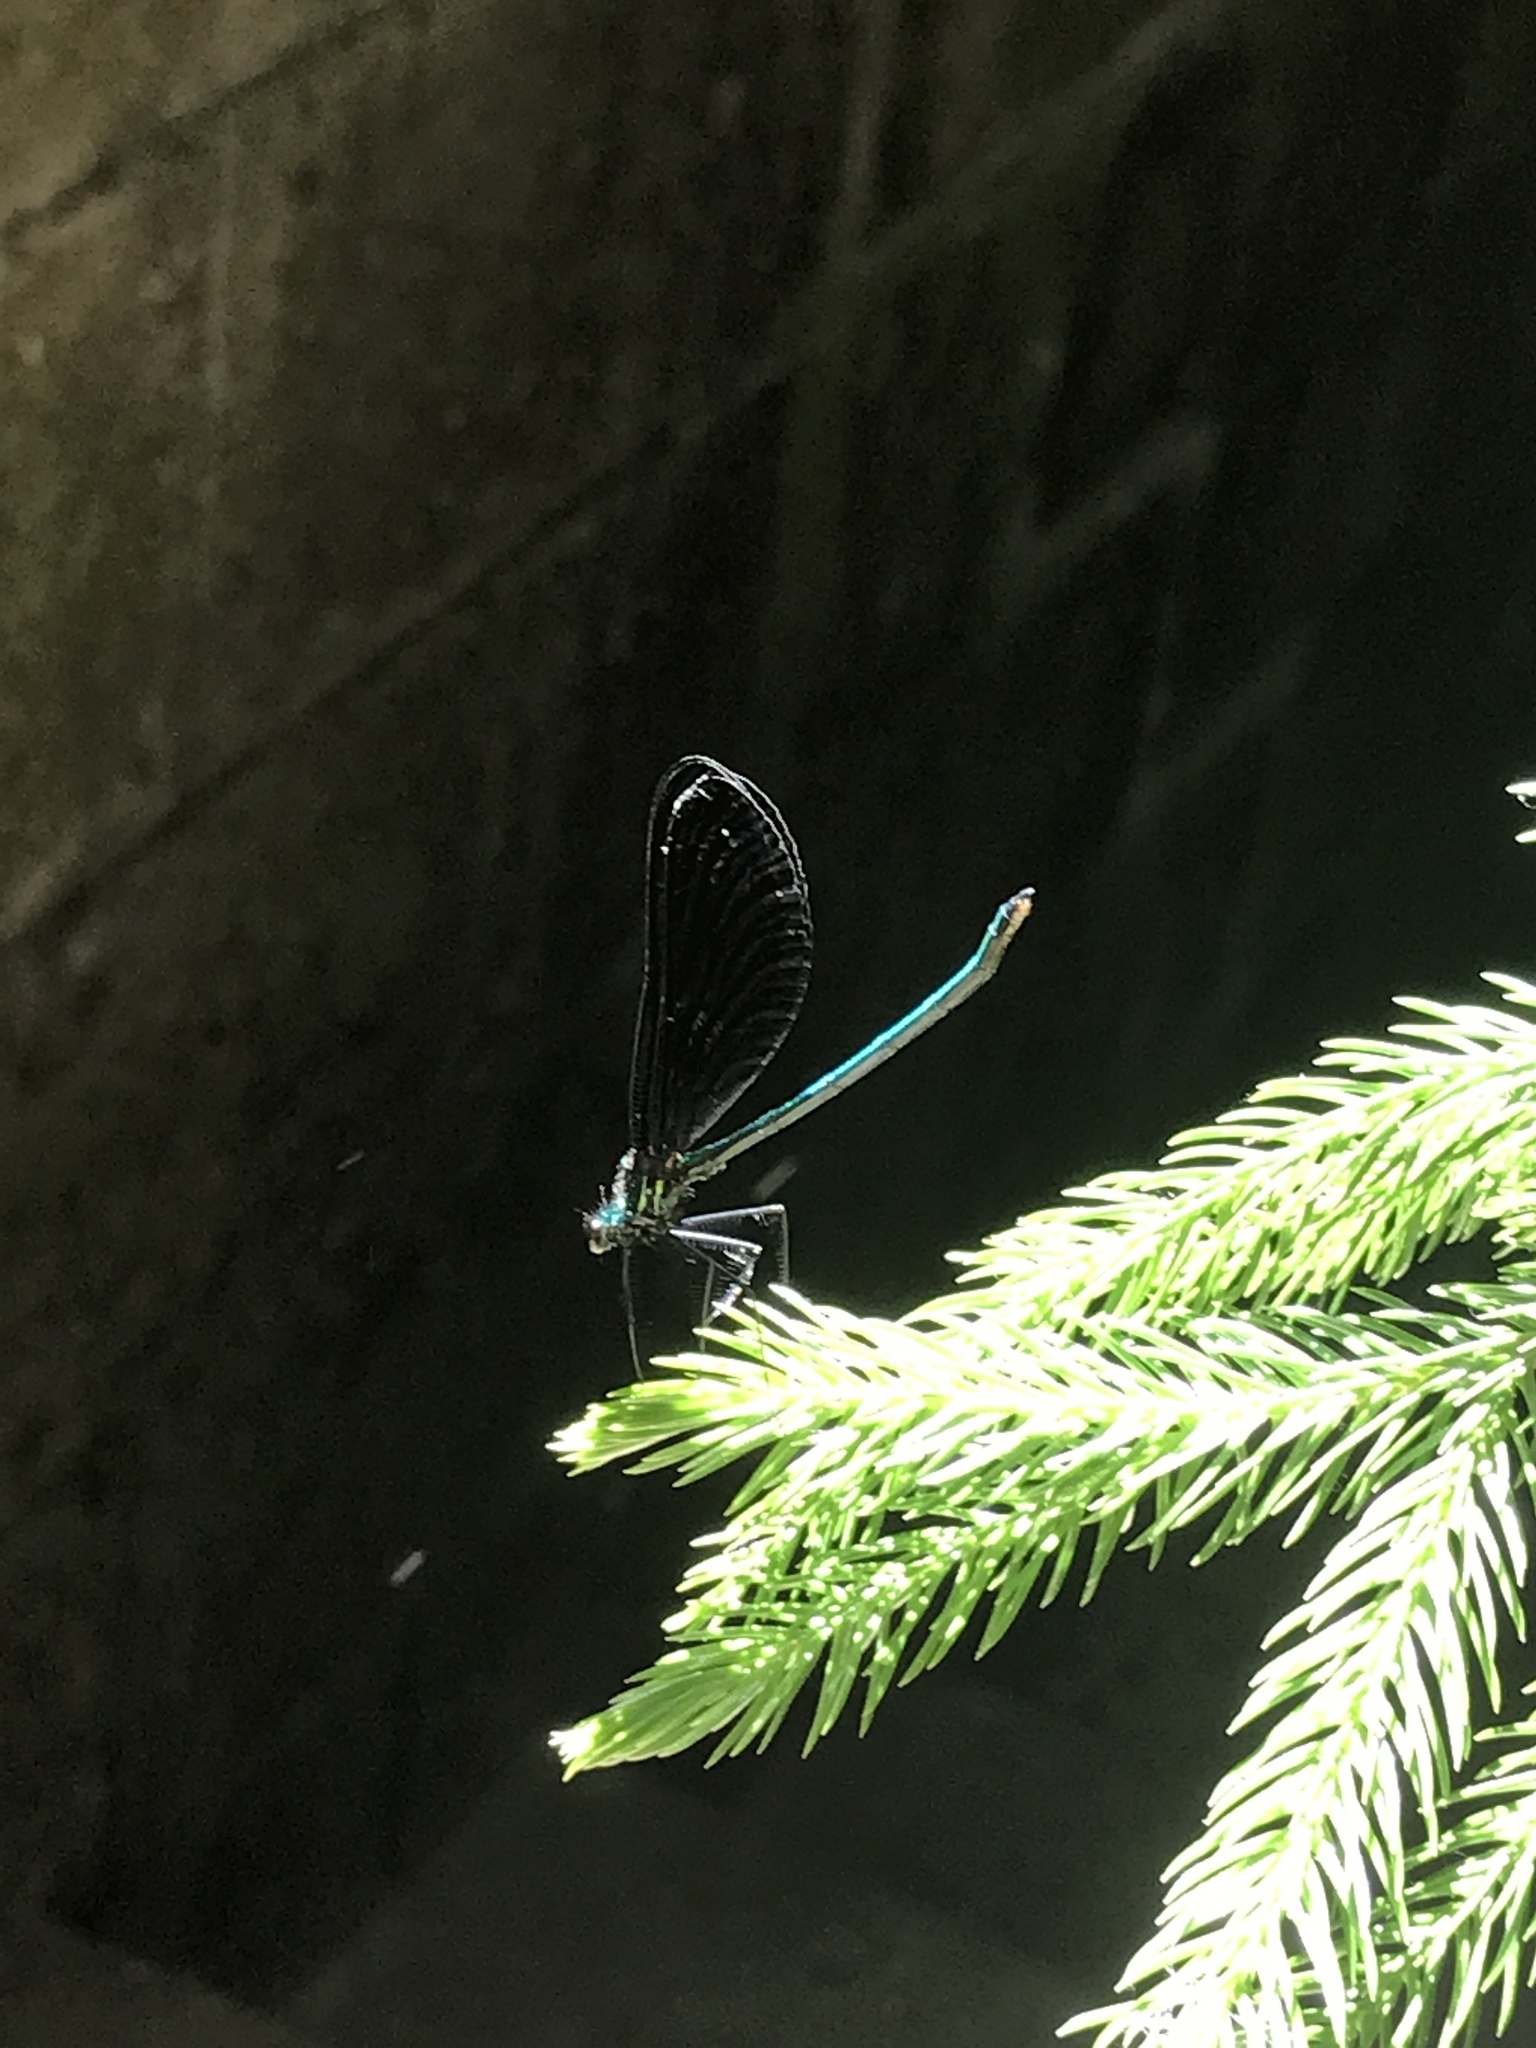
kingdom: Animalia
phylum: Arthropoda
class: Insecta
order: Odonata
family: Calopterygidae
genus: Calopteryx
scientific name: Calopteryx maculata
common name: Ebony jewelwing
